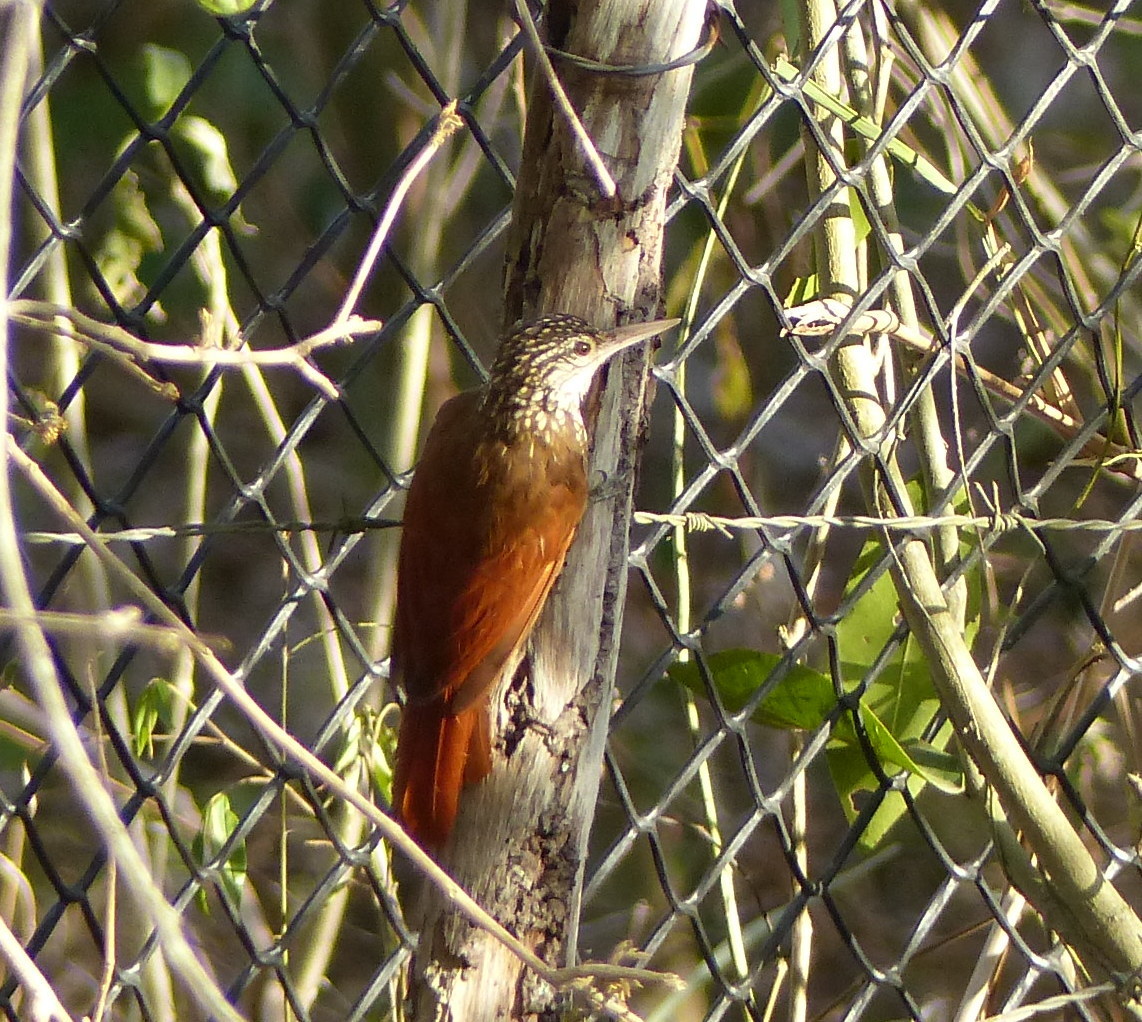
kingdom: Animalia
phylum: Chordata
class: Aves
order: Passeriformes
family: Furnariidae
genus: Xiphorhynchus
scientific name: Xiphorhynchus picus
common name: Straight-billed woodcreeper
